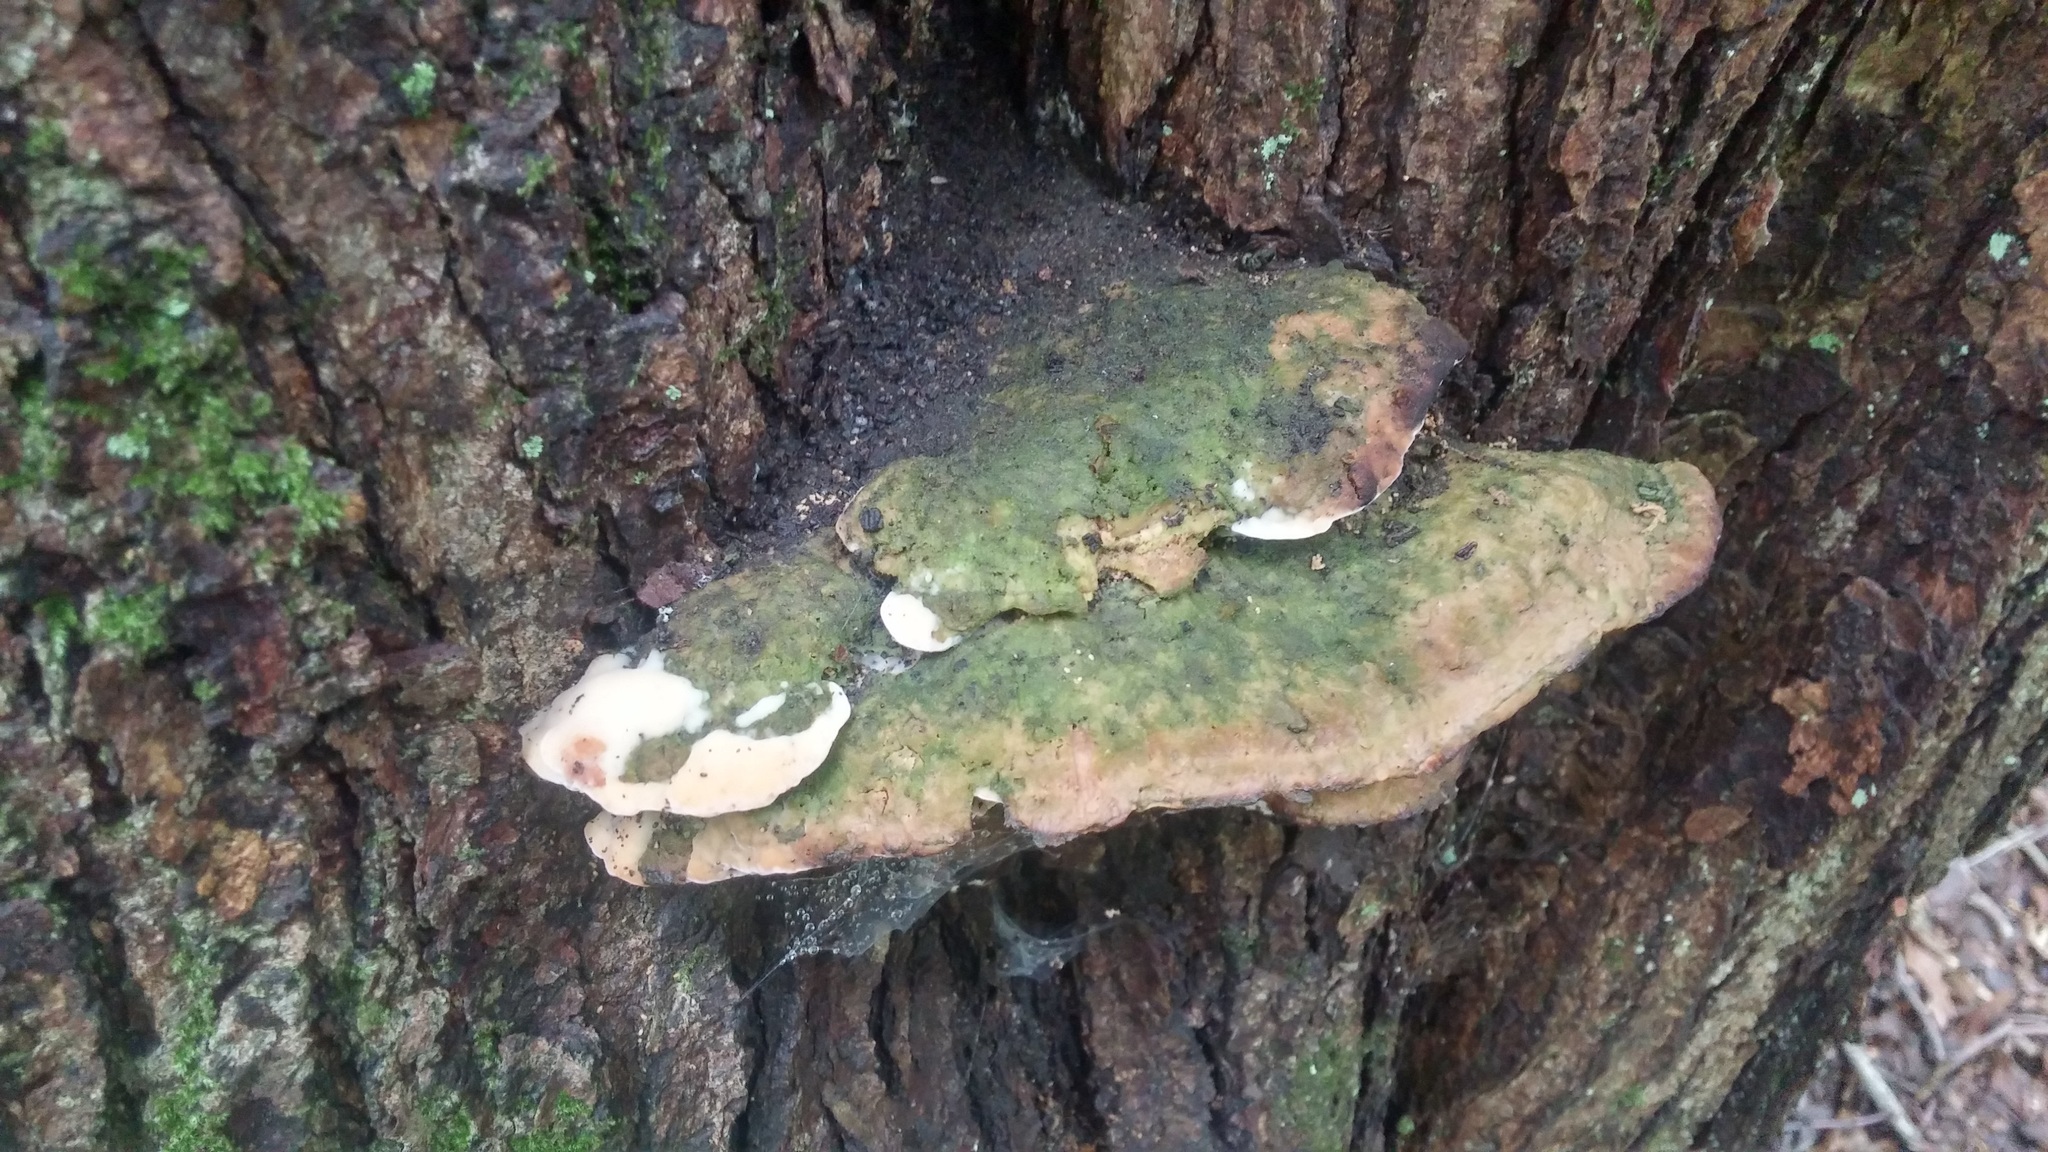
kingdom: Fungi
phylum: Basidiomycota
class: Agaricomycetes
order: Hymenochaetales
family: Oxyporaceae
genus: Oxyporus
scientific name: Oxyporus populinus
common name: Poplar bracket
